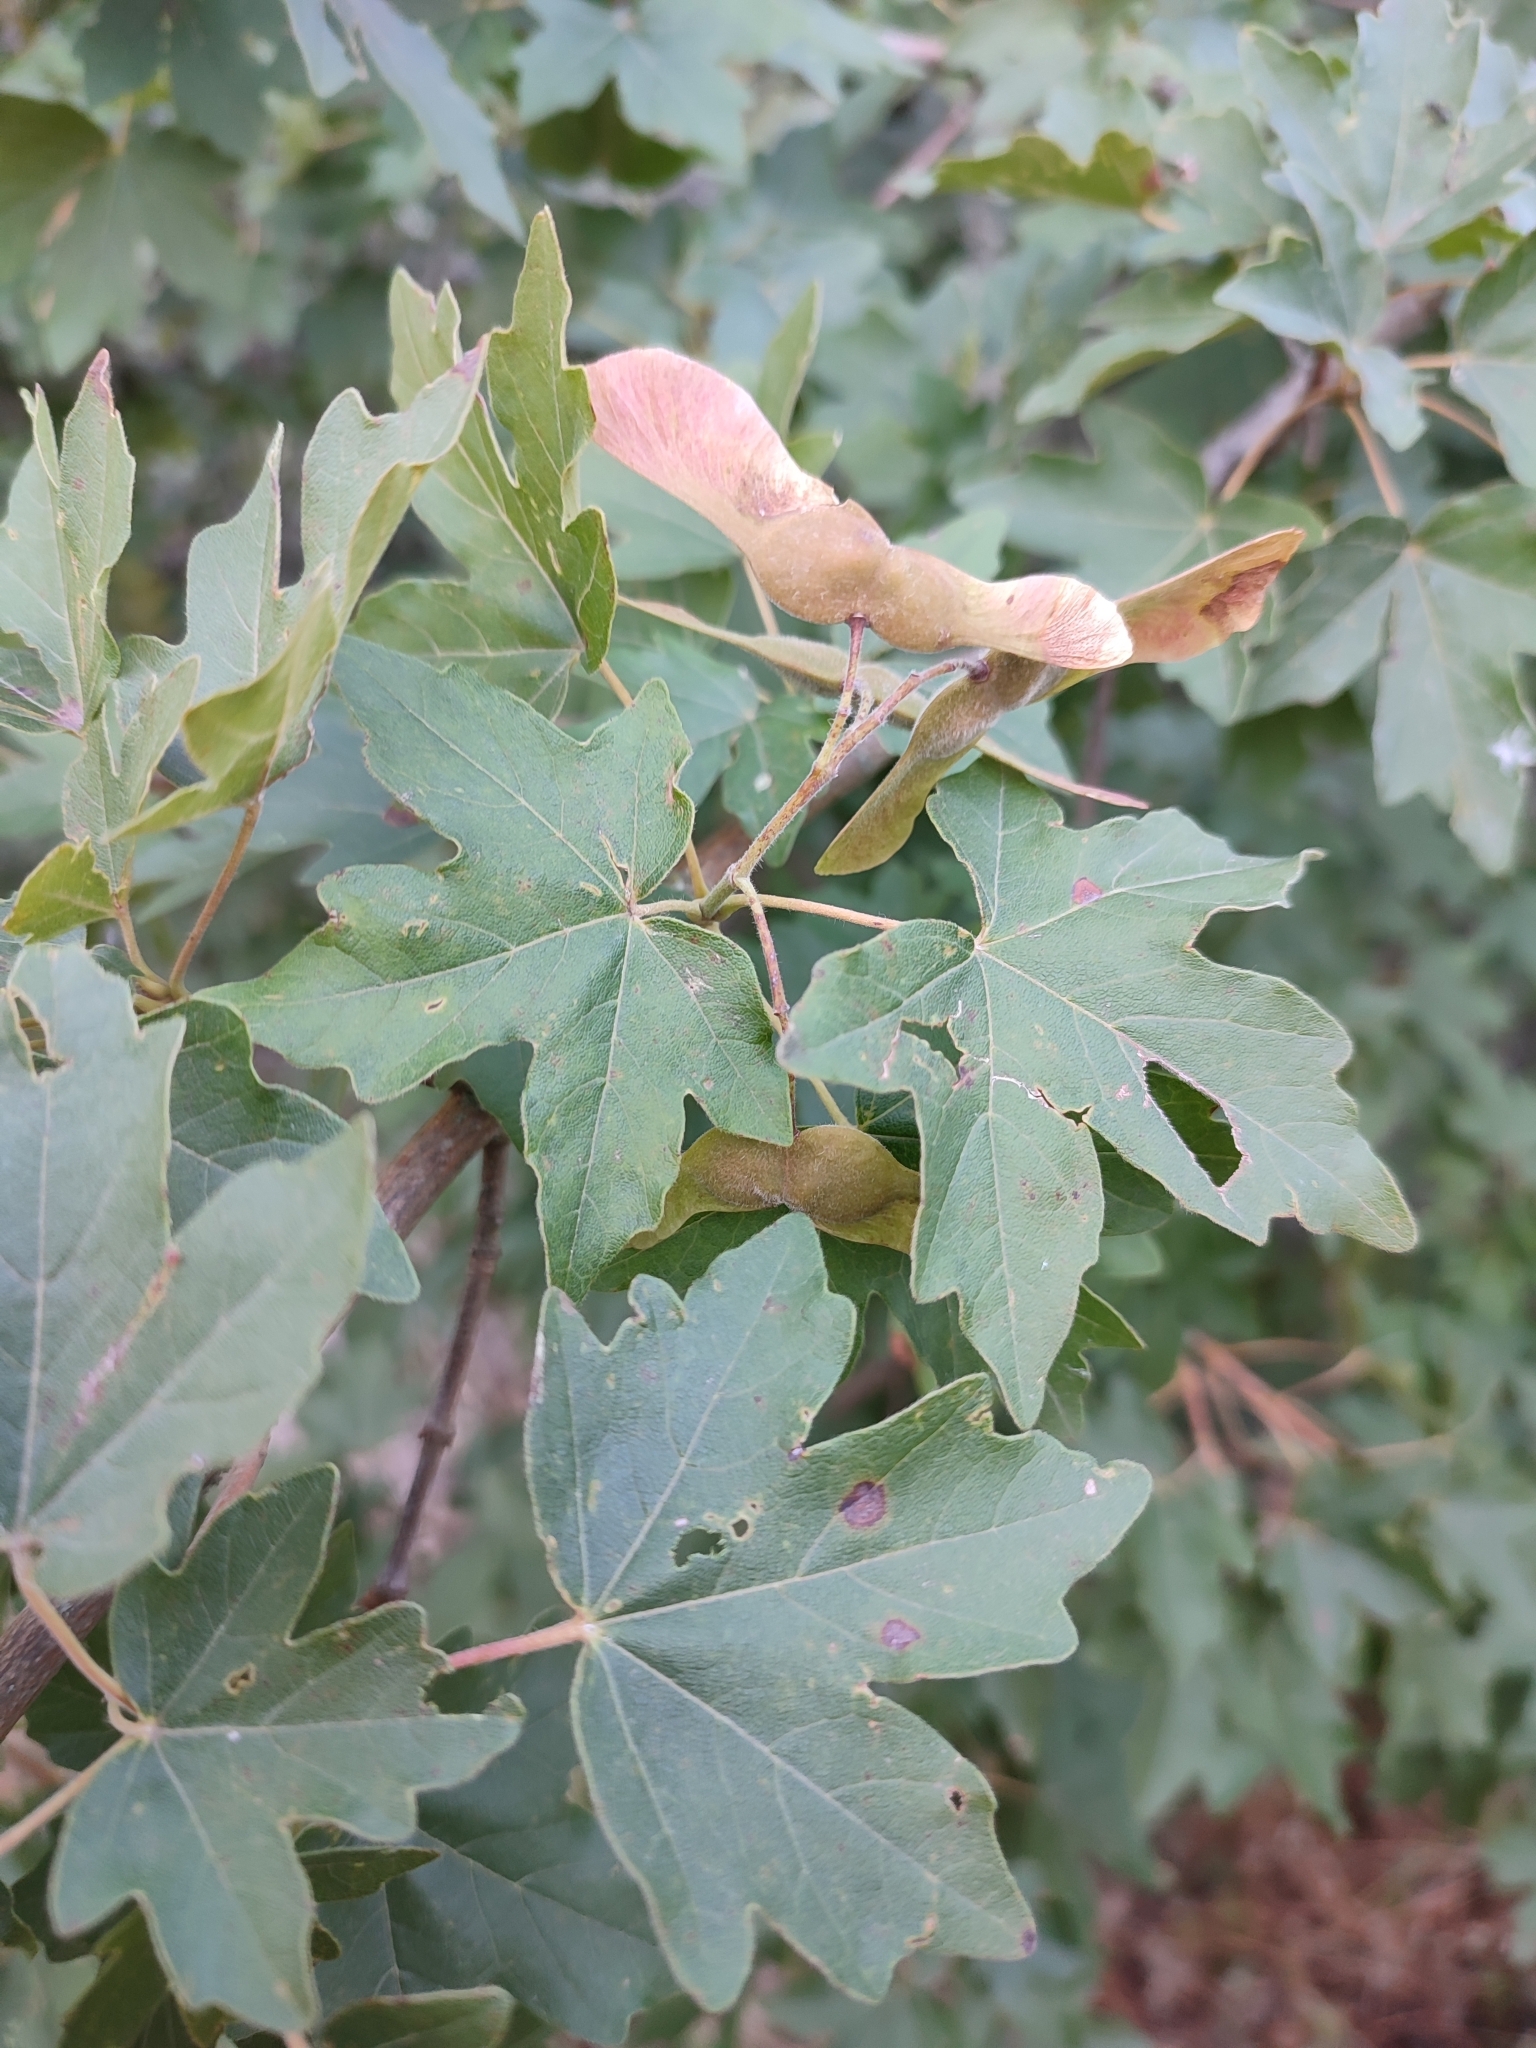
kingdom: Plantae
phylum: Tracheophyta
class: Magnoliopsida
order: Sapindales
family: Sapindaceae
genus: Acer
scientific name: Acer campestre
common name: Field maple
